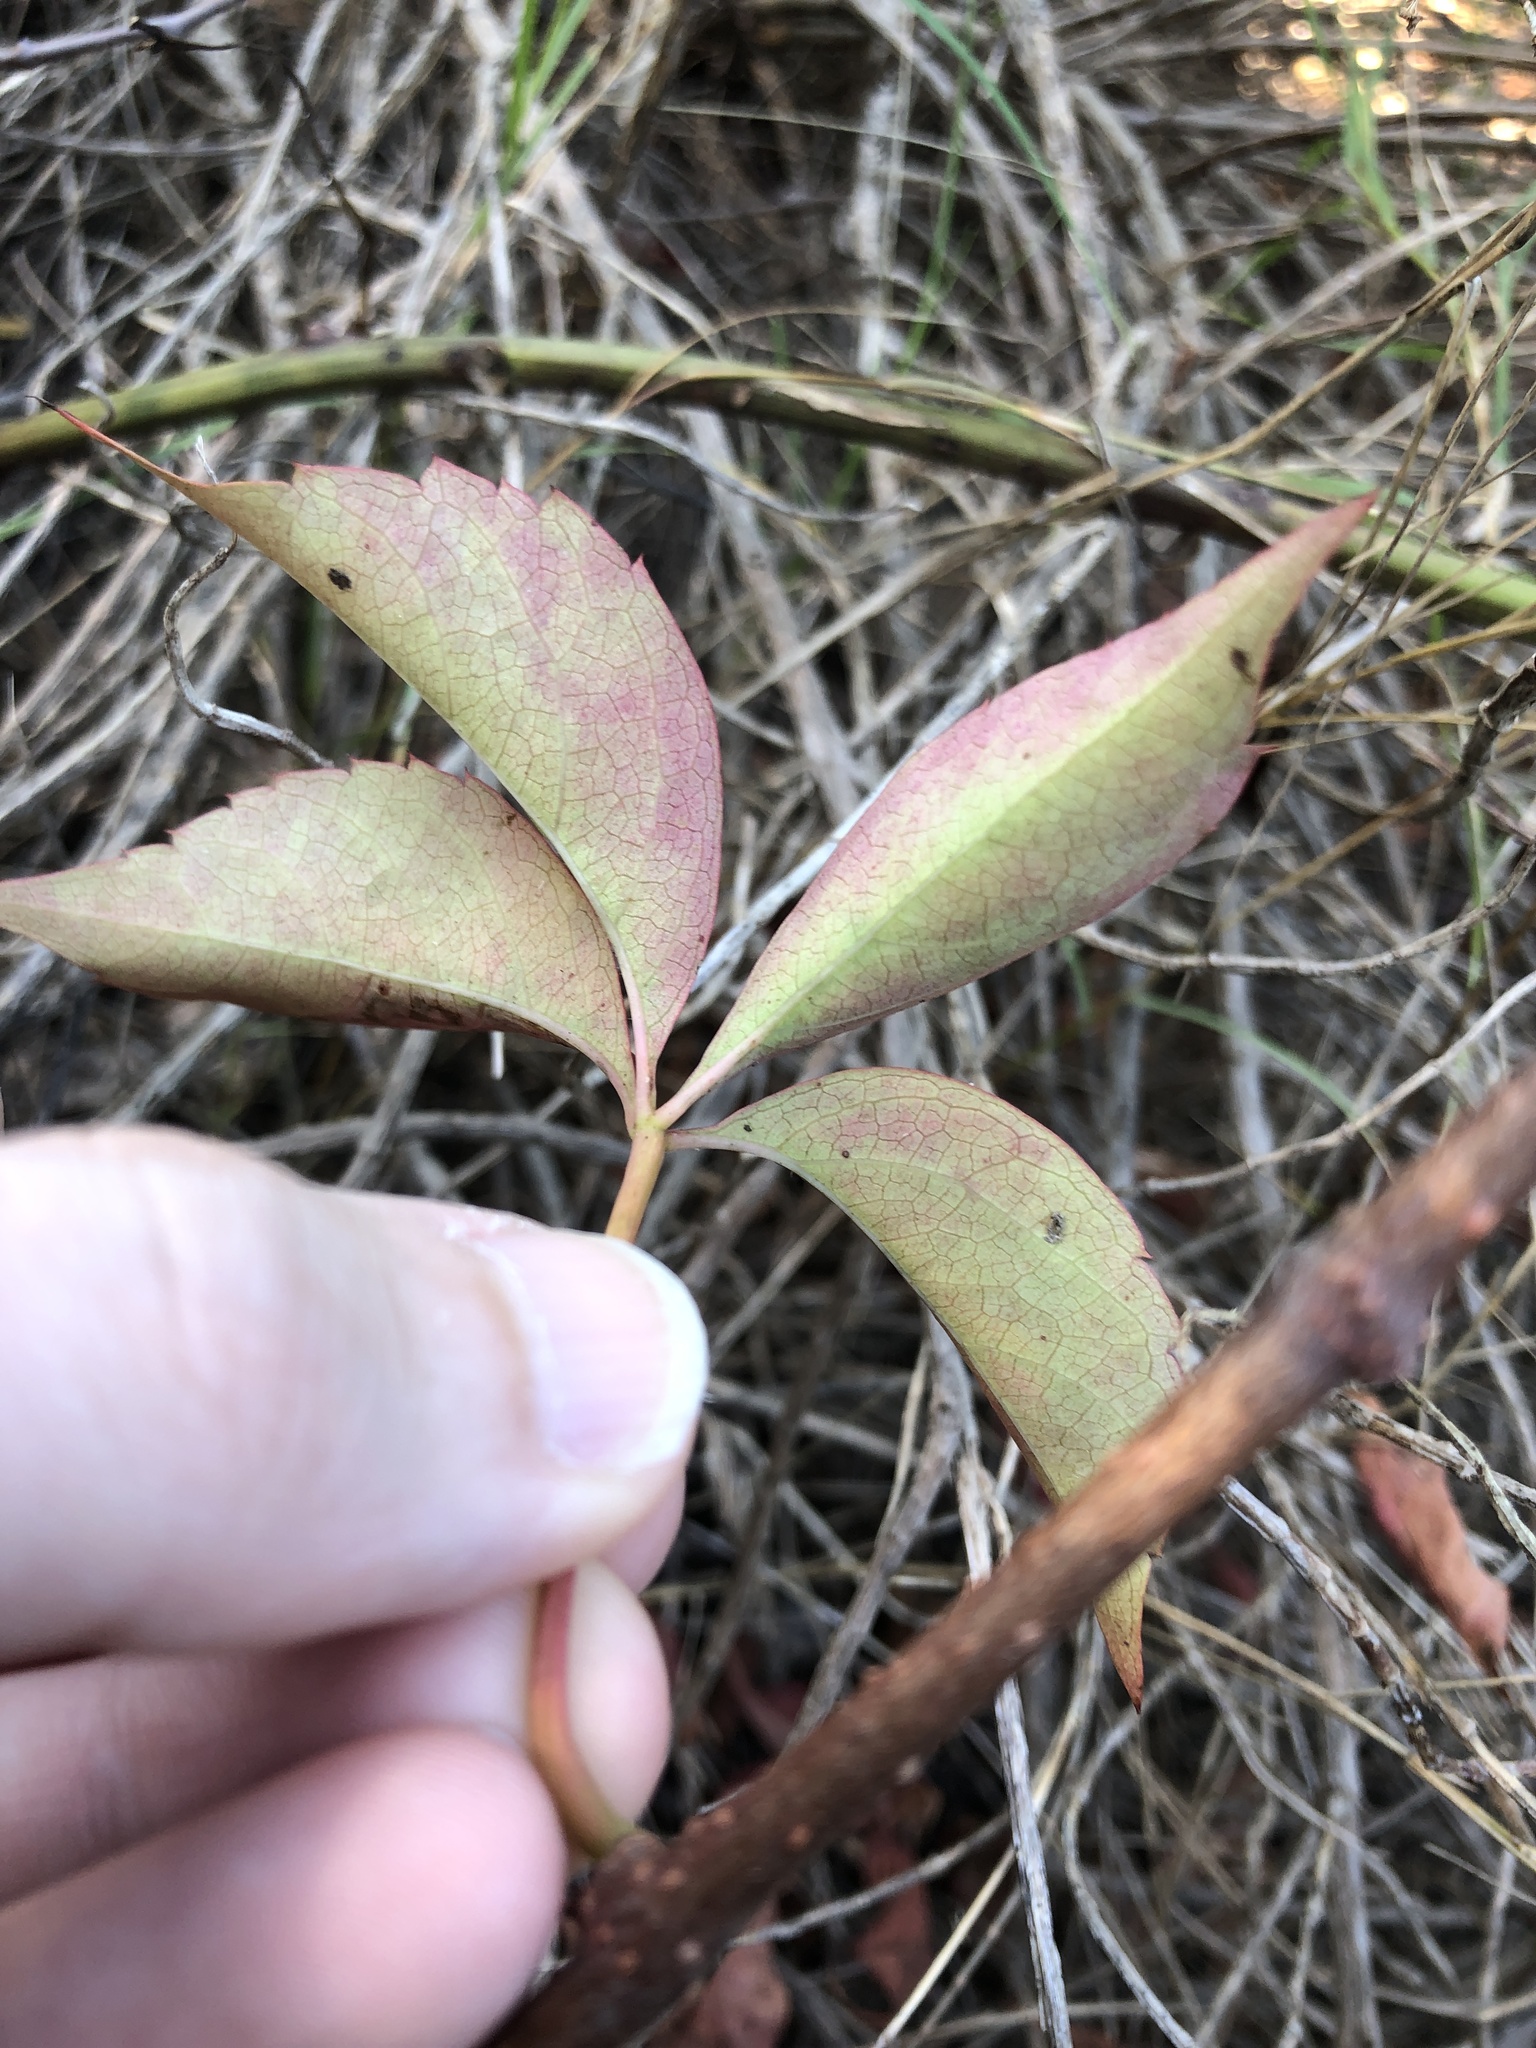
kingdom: Plantae
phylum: Tracheophyta
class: Magnoliopsida
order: Vitales
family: Vitaceae
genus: Parthenocissus
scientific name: Parthenocissus quinquefolia
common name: Virginia-creeper
